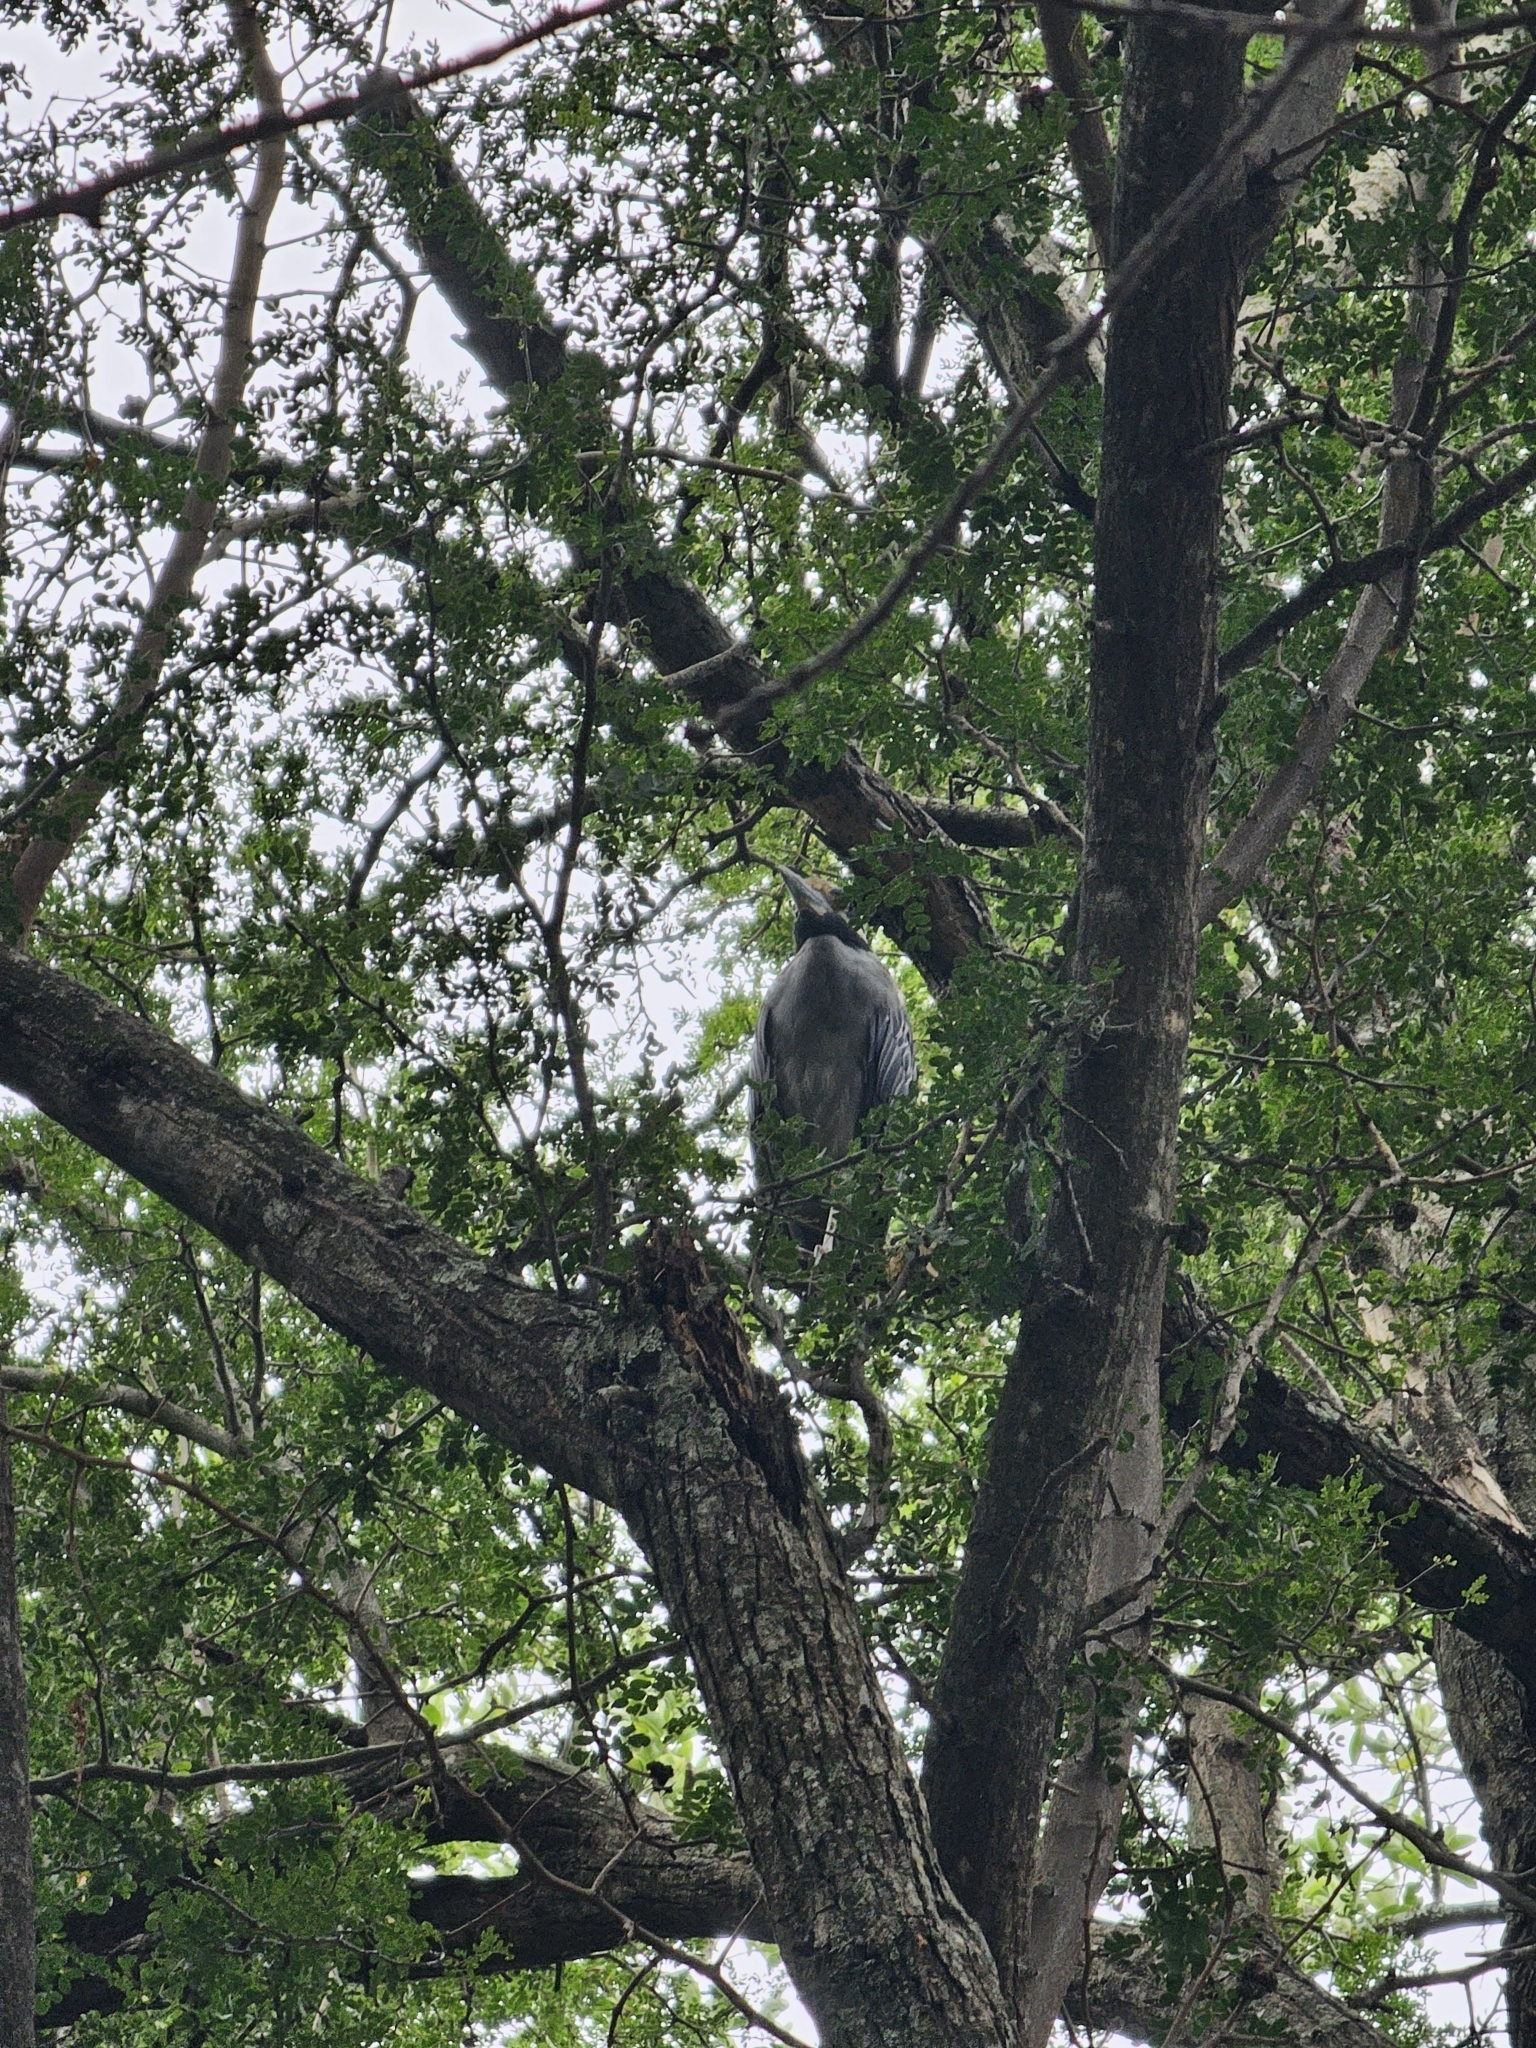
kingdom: Animalia
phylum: Chordata
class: Aves
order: Pelecaniformes
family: Ardeidae
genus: Nyctanassa
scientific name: Nyctanassa violacea
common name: Yellow-crowned night heron
